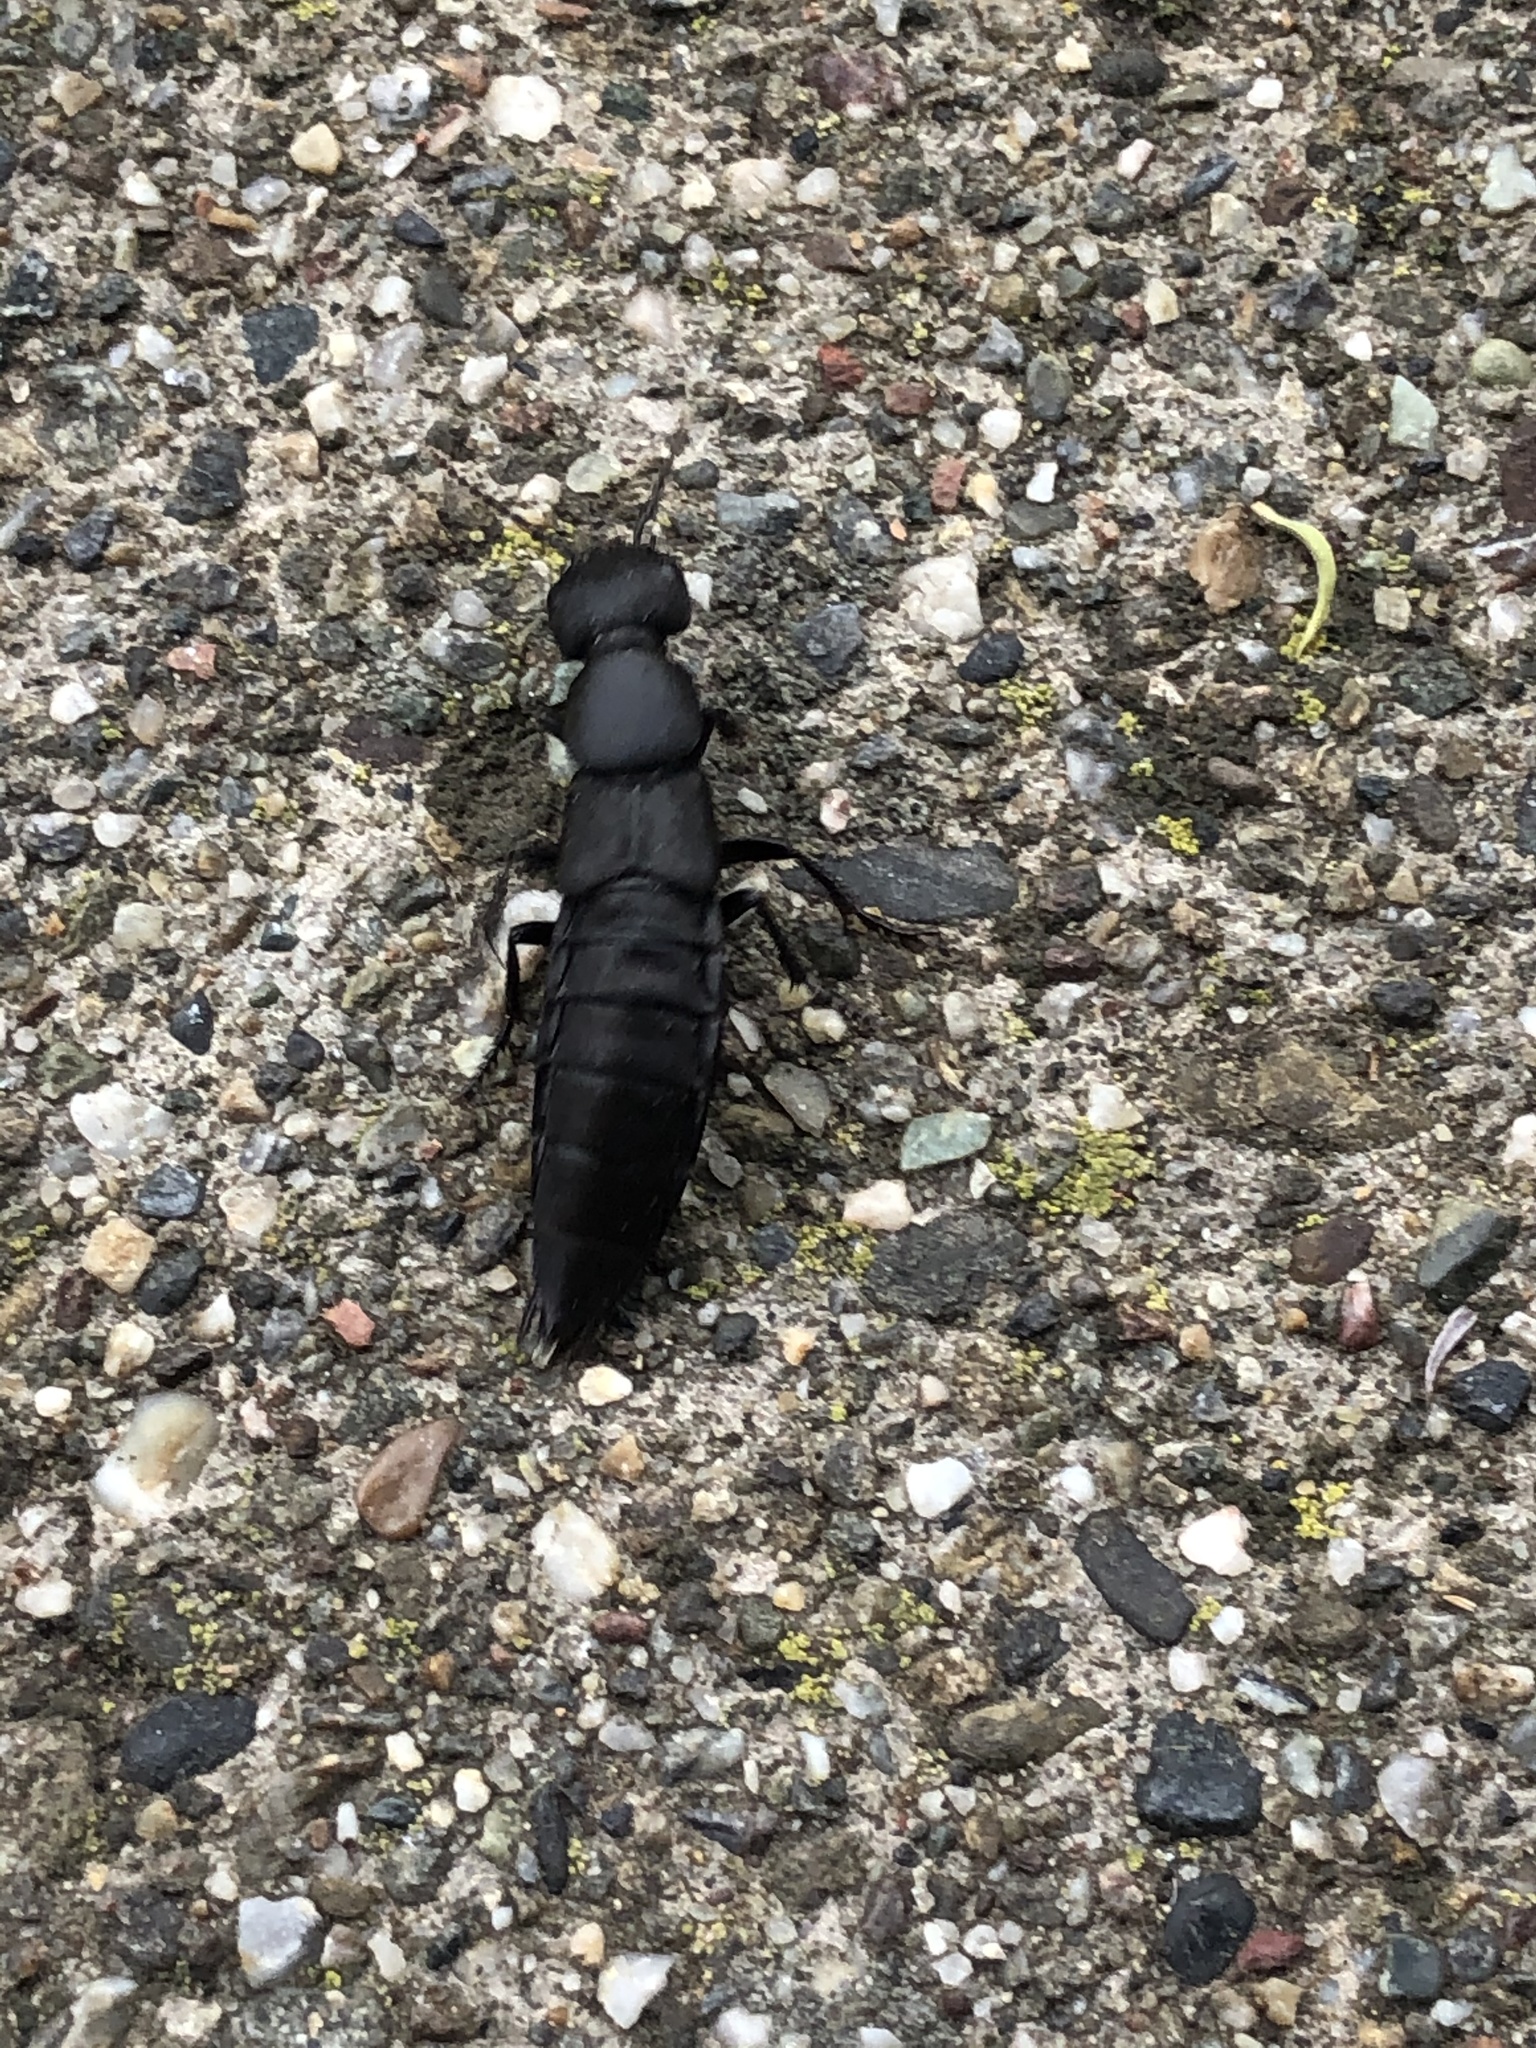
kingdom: Animalia
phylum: Arthropoda
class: Insecta
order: Coleoptera
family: Staphylinidae
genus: Ocypus
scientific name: Ocypus olens
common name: Devil's coach-horse
